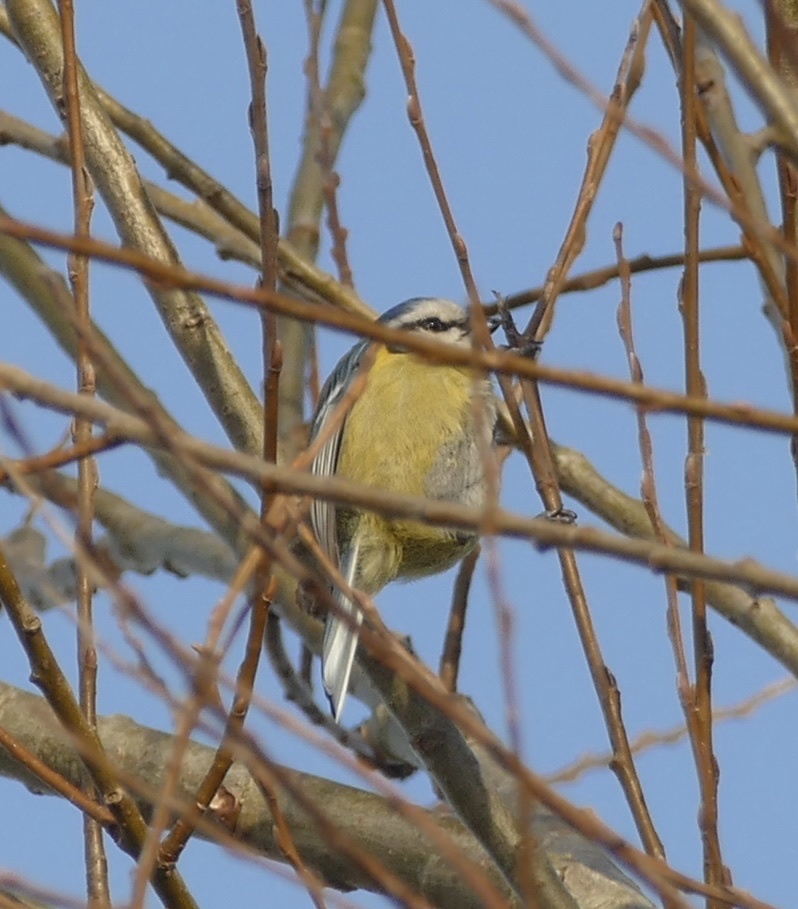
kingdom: Animalia
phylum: Chordata
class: Aves
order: Passeriformes
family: Paridae
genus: Cyanistes
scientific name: Cyanistes caeruleus
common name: Eurasian blue tit
